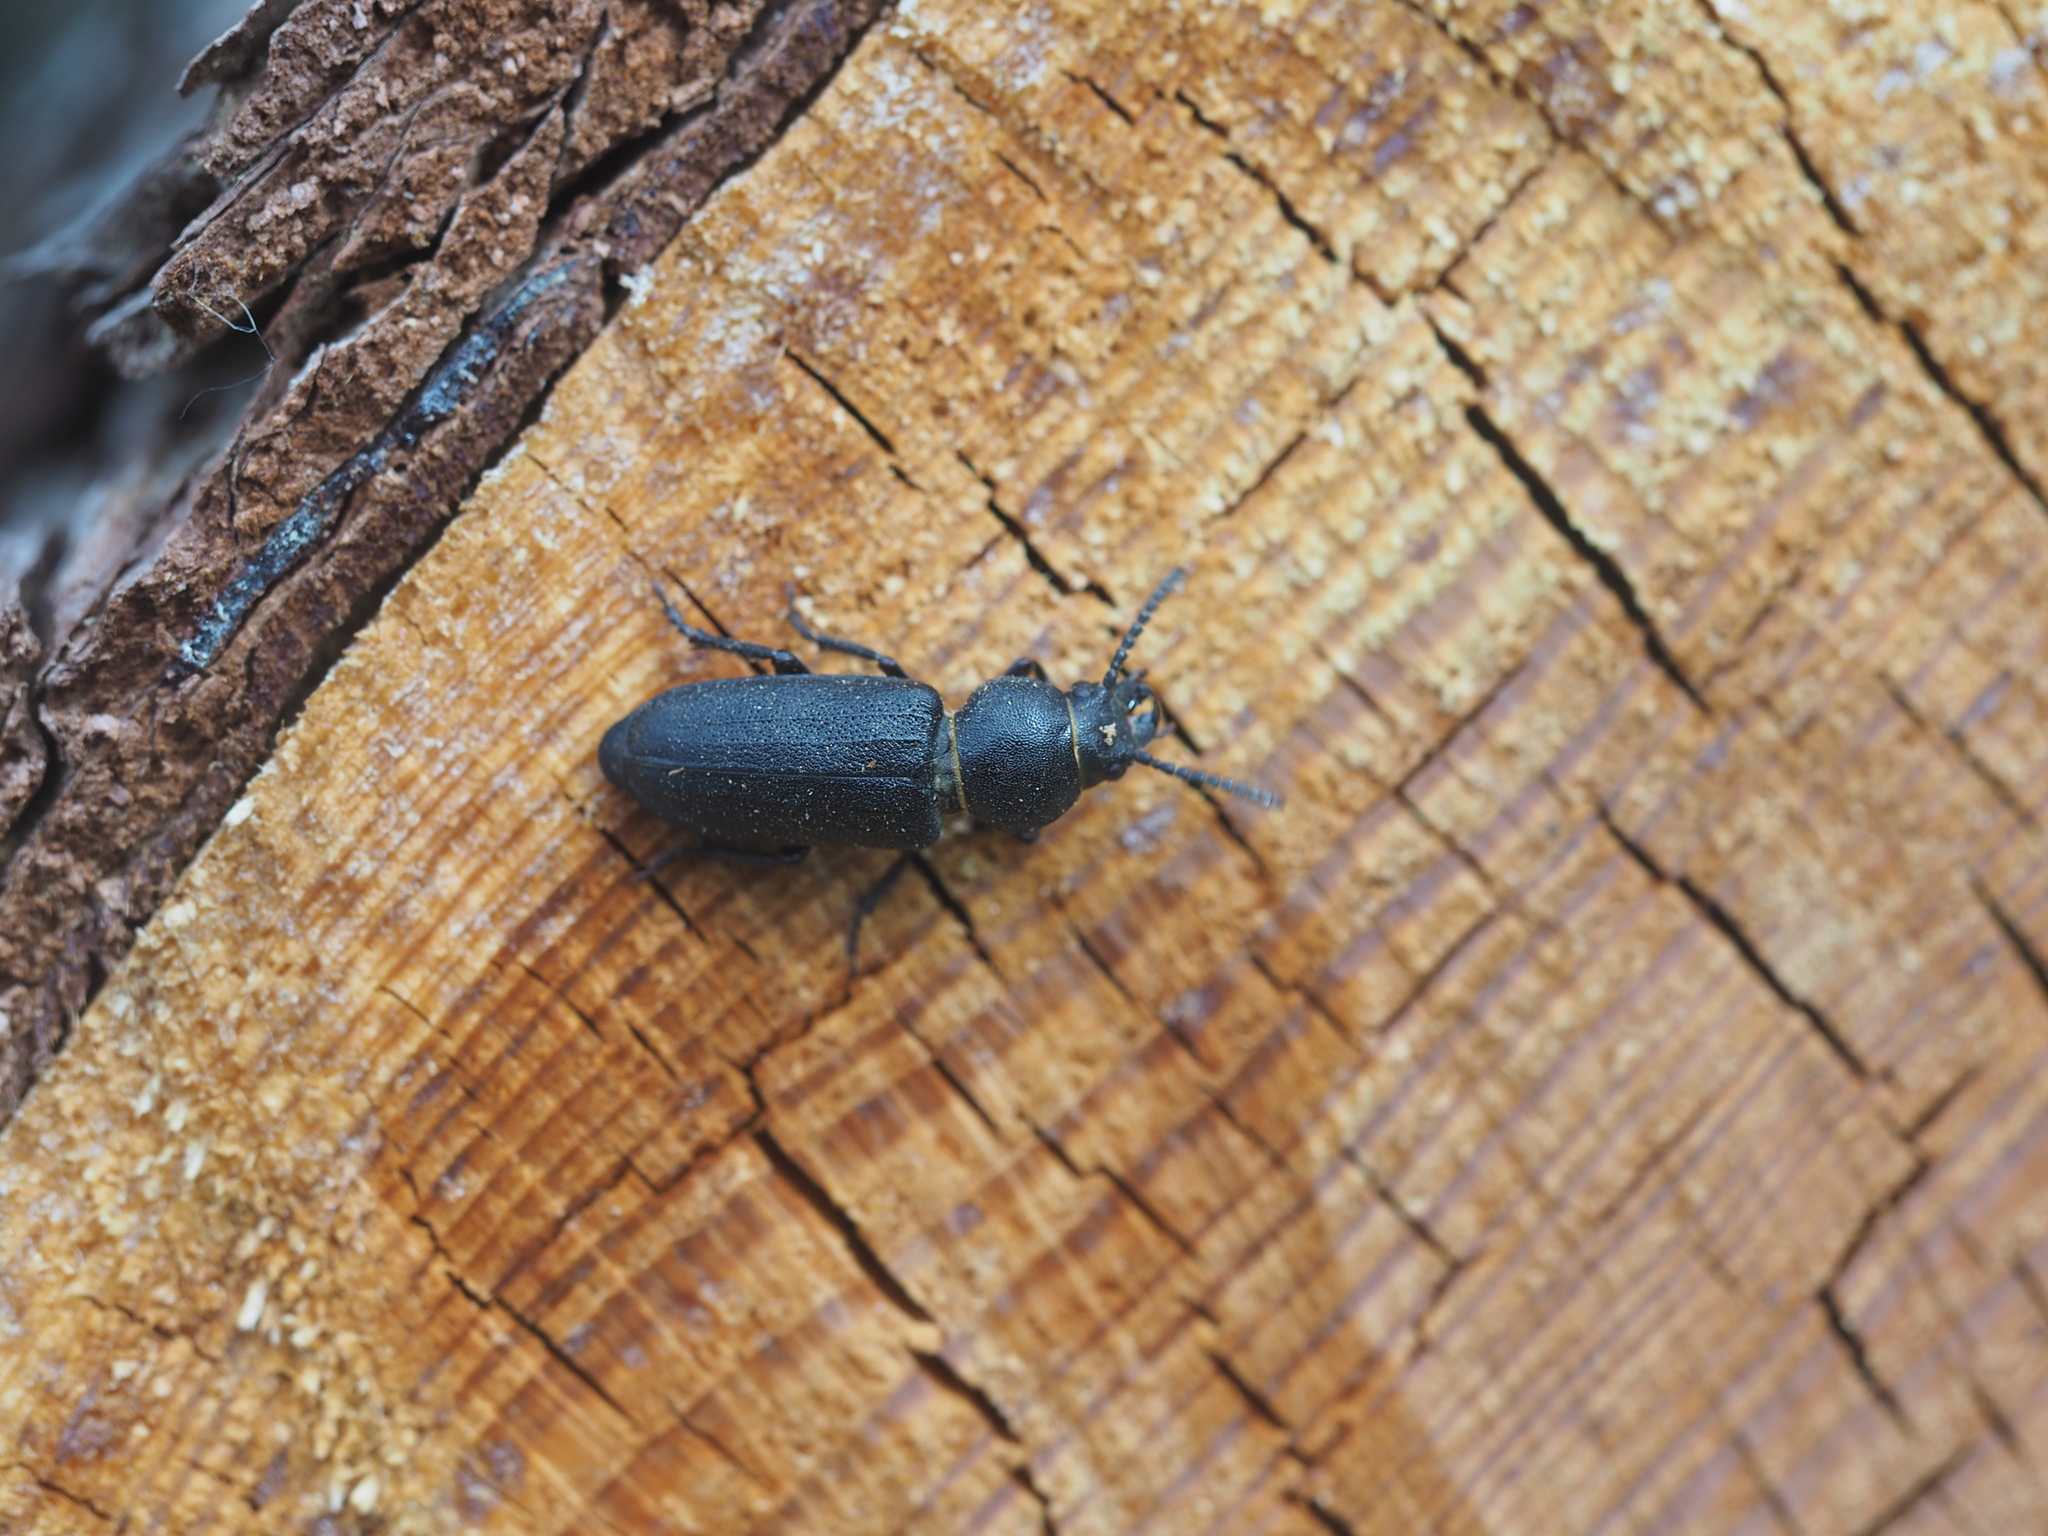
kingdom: Animalia
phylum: Arthropoda
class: Insecta
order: Coleoptera
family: Cerambycidae
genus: Spondylis
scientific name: Spondylis buprestoides
